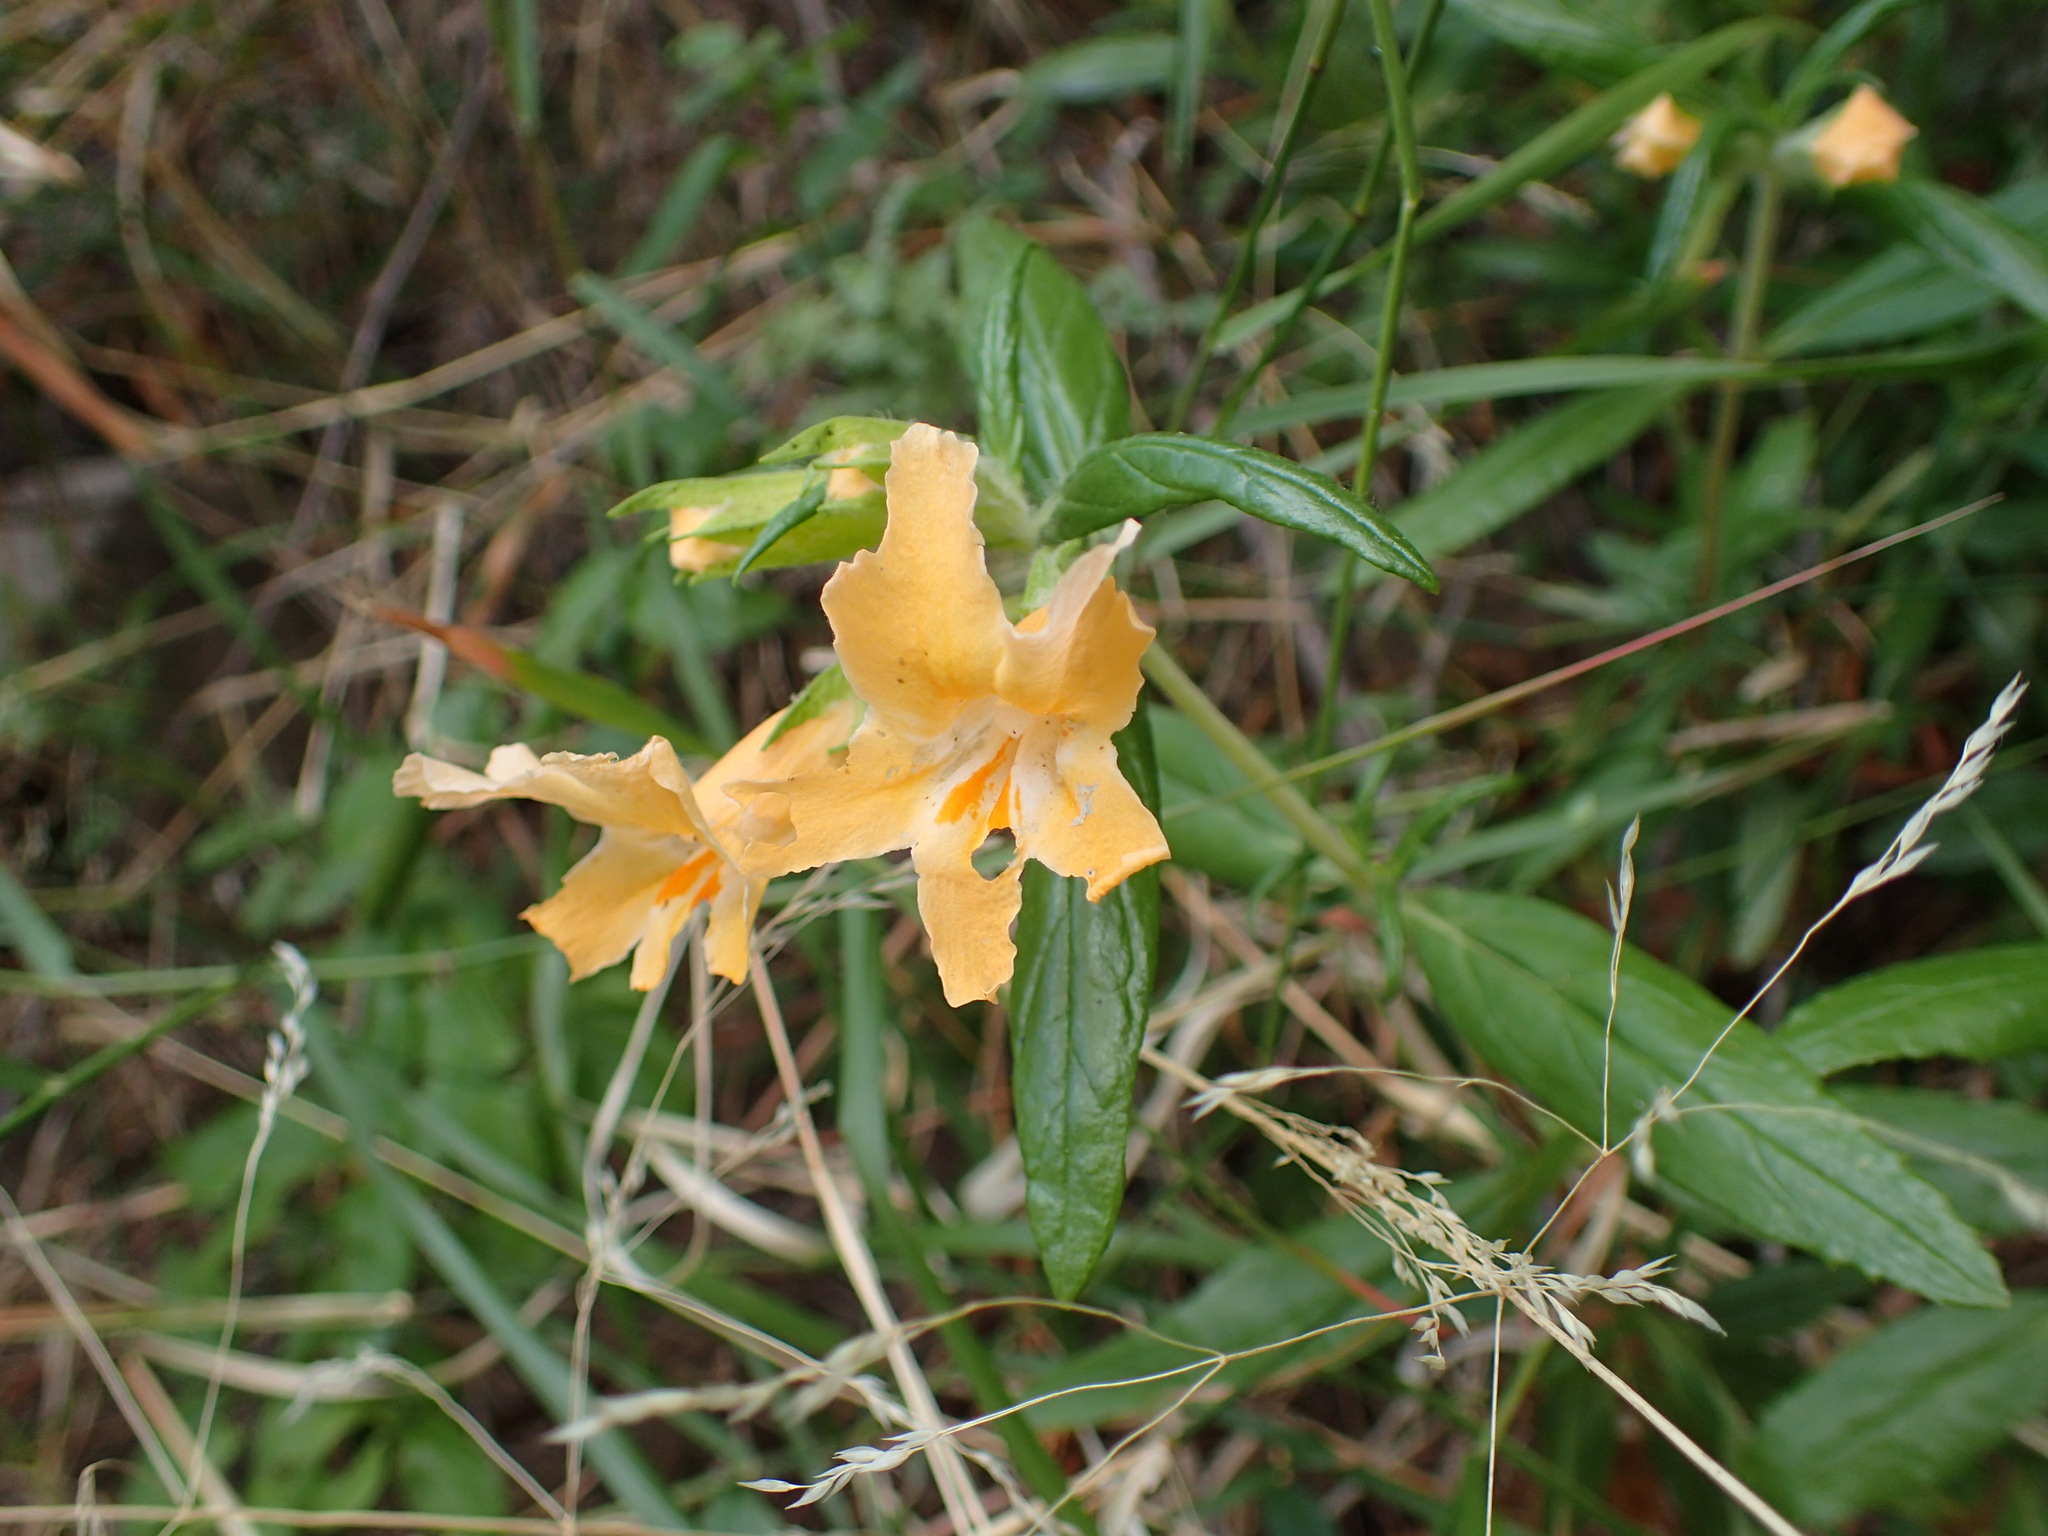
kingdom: Plantae
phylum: Tracheophyta
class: Magnoliopsida
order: Lamiales
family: Phrymaceae
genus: Diplacus
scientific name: Diplacus longiflorus
